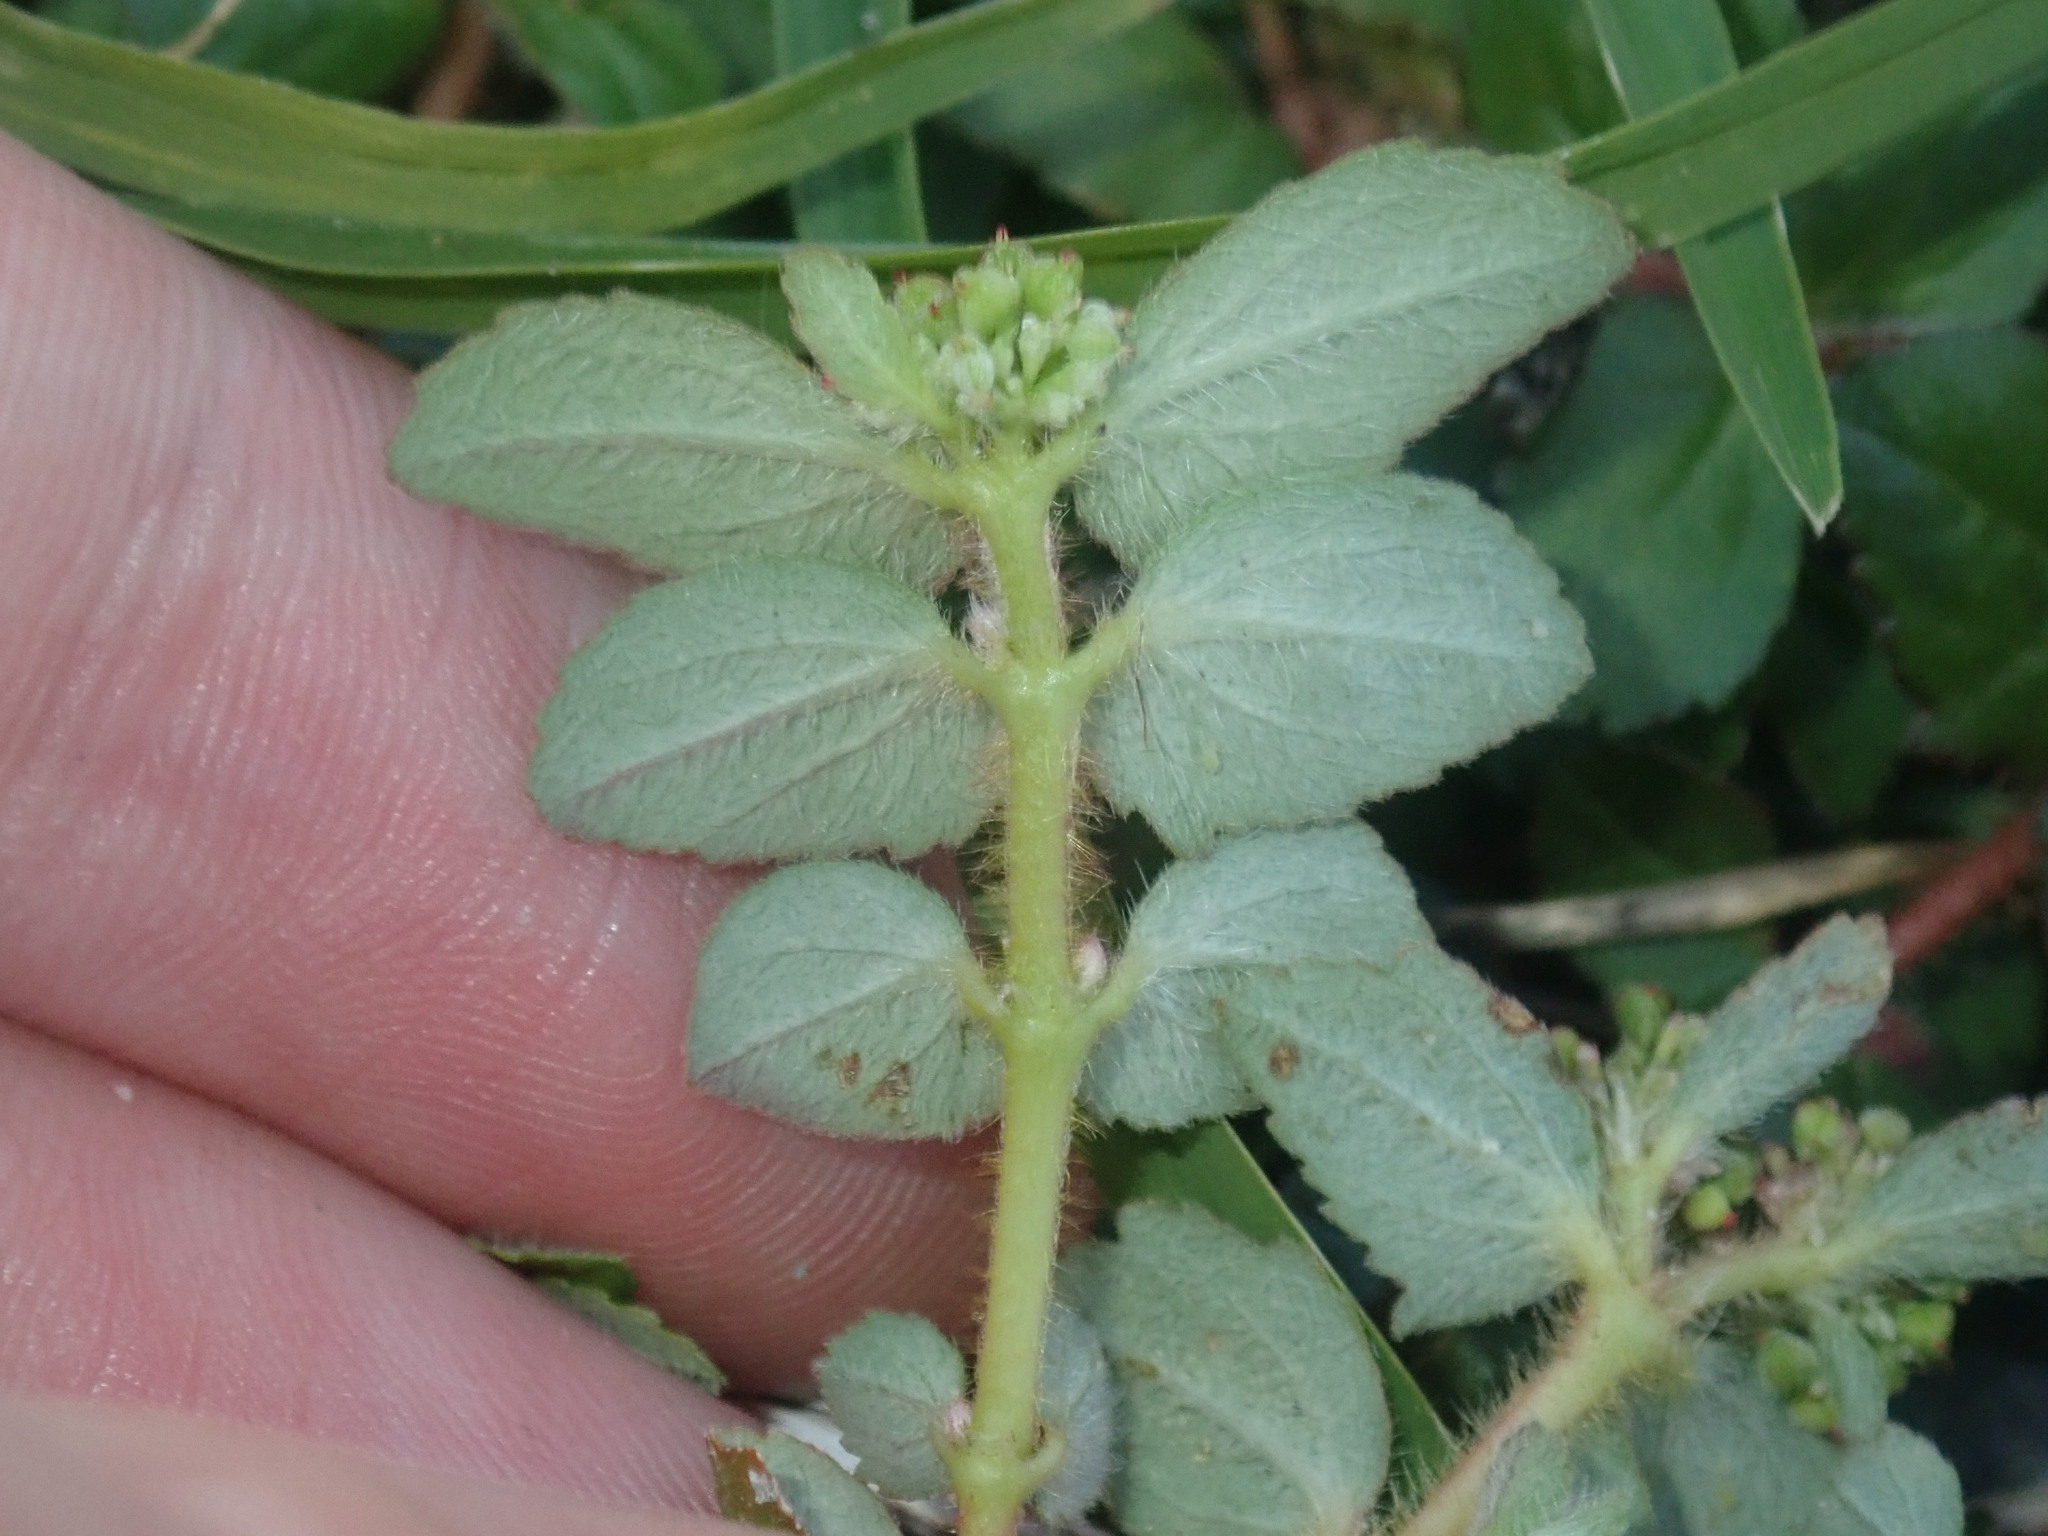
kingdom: Plantae
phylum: Tracheophyta
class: Magnoliopsida
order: Malpighiales
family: Euphorbiaceae
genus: Euphorbia
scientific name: Euphorbia ophthalmica
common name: Florida hammock sandmat
